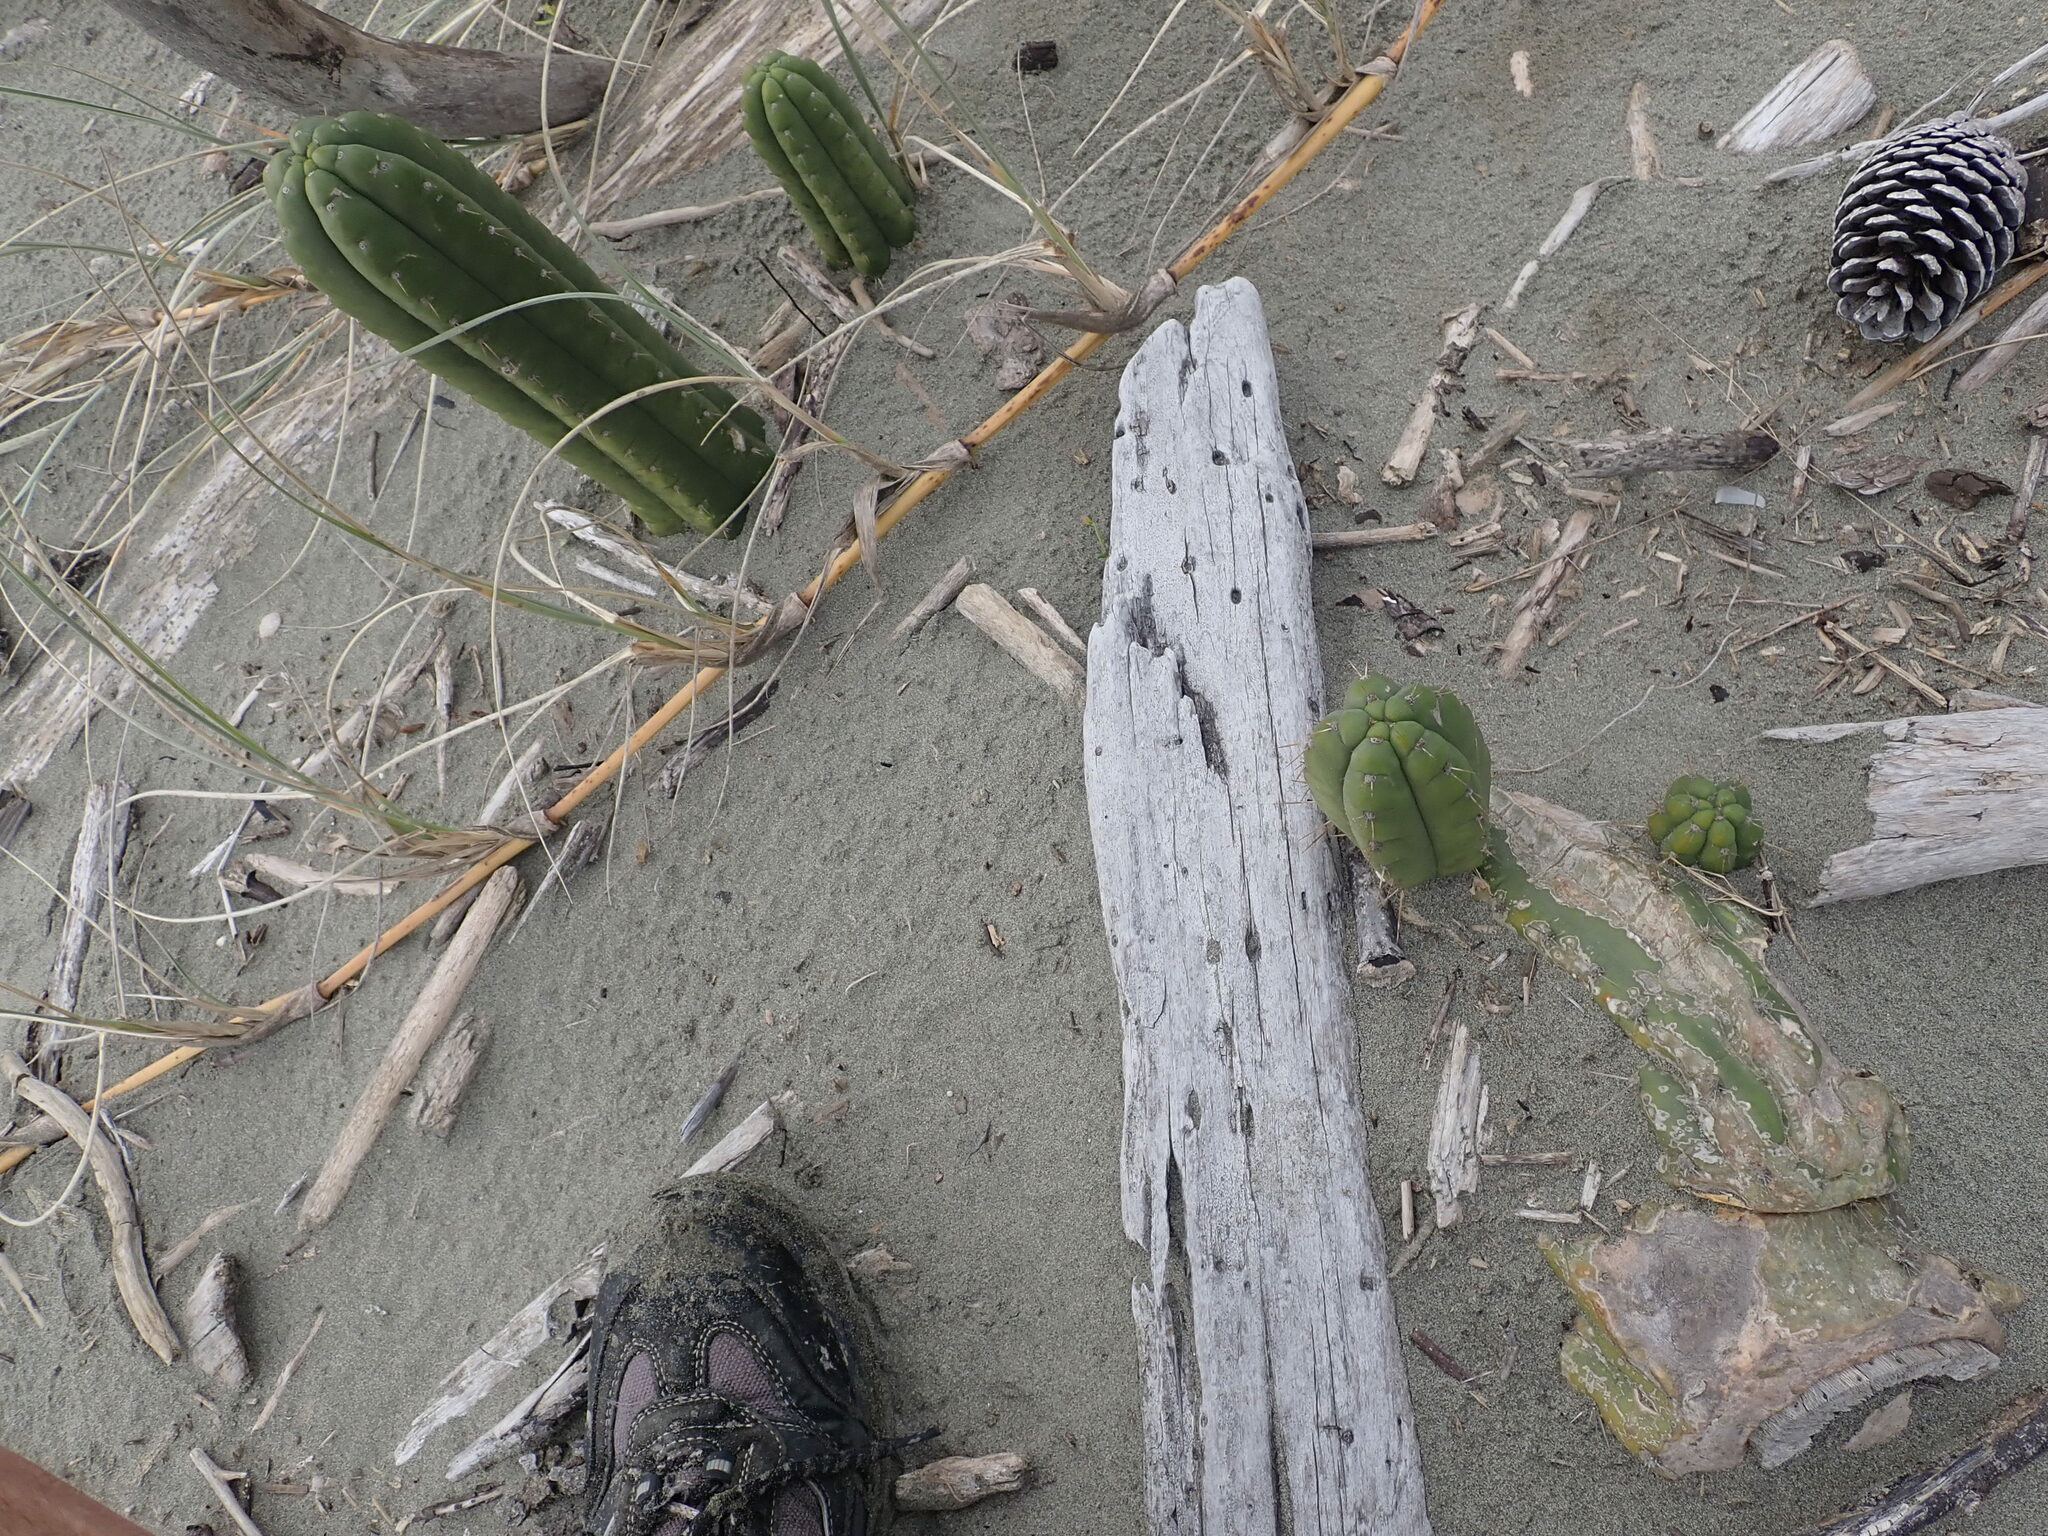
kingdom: Plantae
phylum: Tracheophyta
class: Magnoliopsida
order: Caryophyllales
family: Cactaceae
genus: Trichocereus
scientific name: Trichocereus macrogonus
